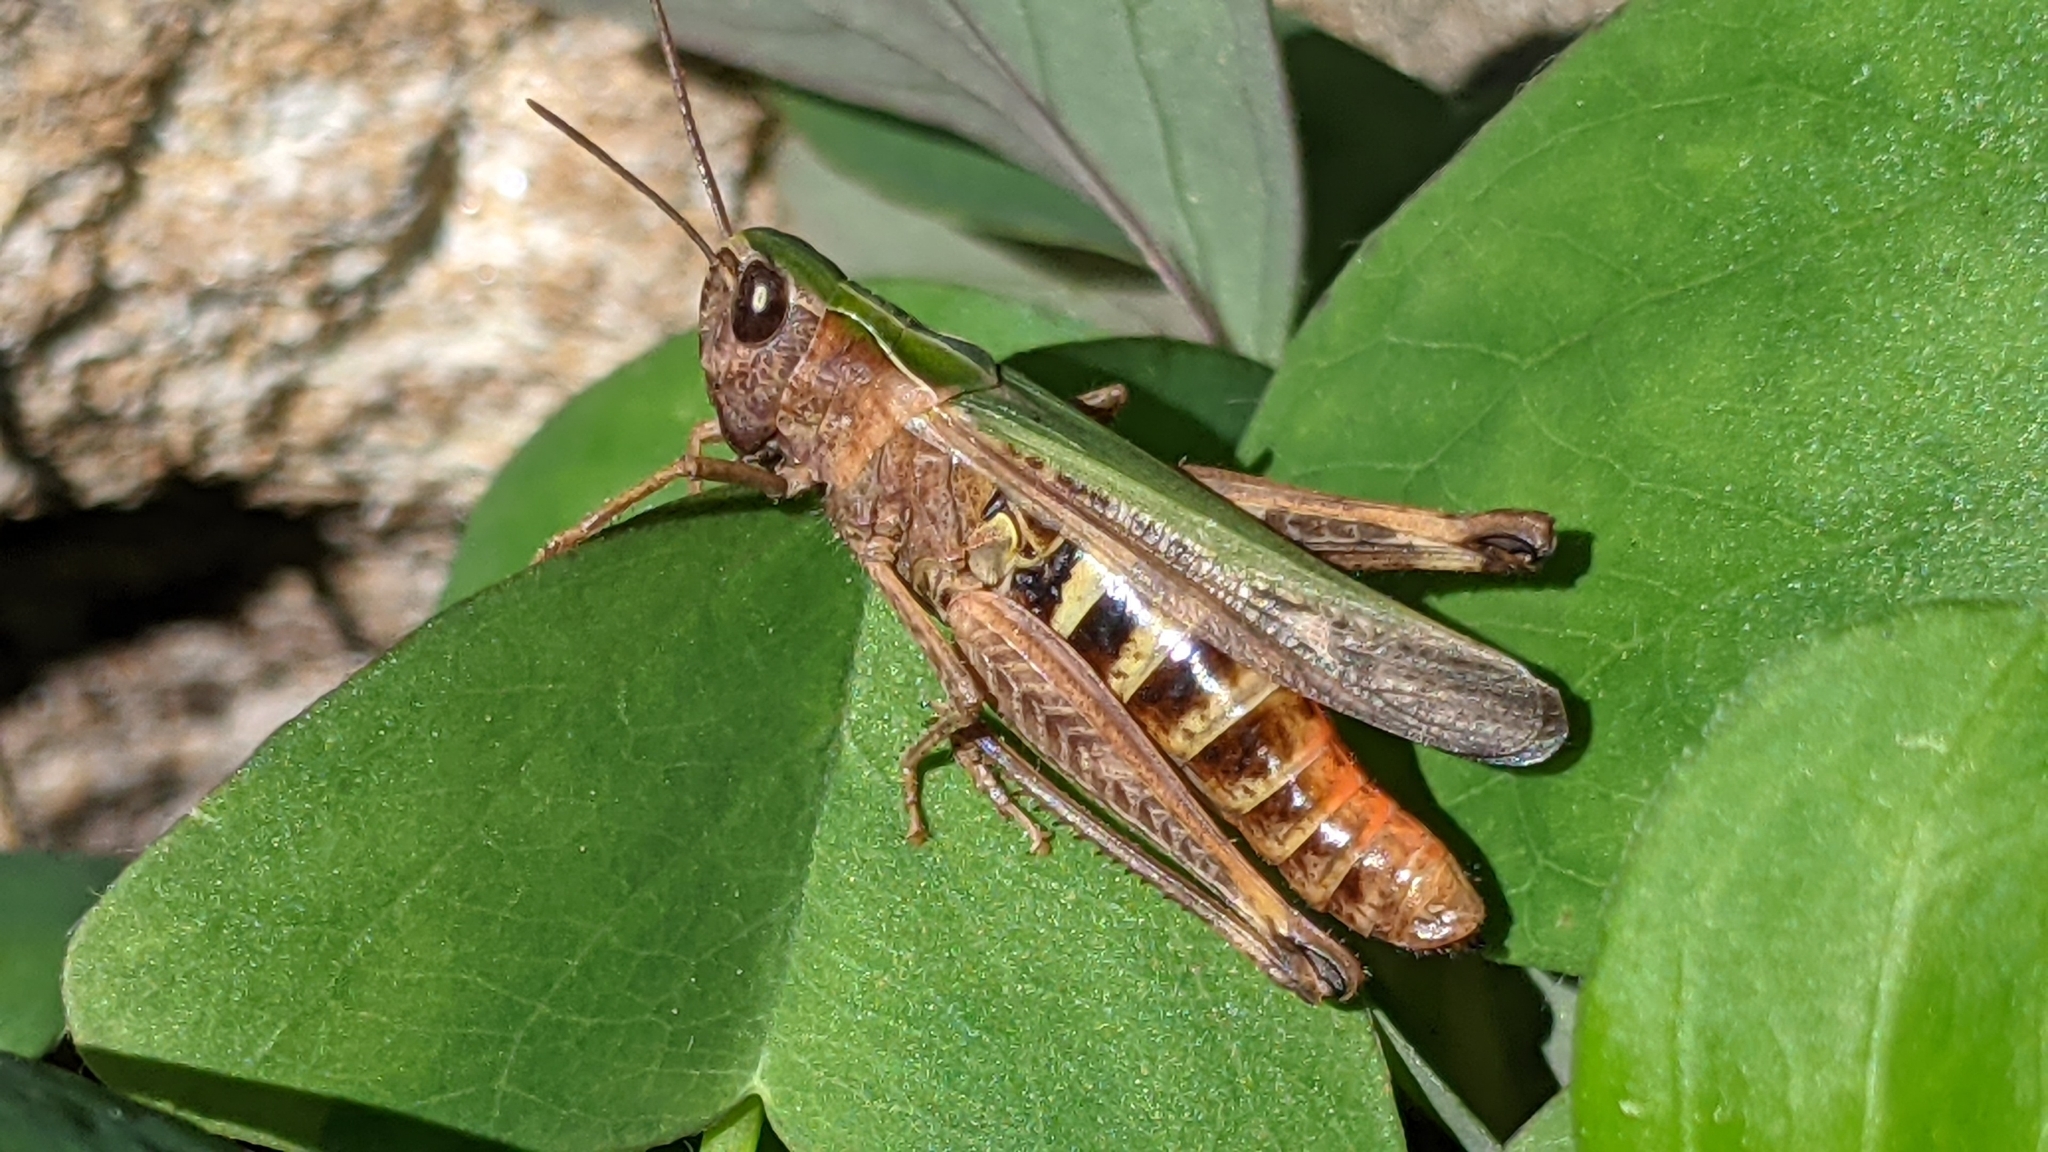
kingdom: Animalia
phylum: Arthropoda
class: Insecta
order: Orthoptera
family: Acrididae
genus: Omocestus
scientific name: Omocestus rufipes
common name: Woodland grasshopper
